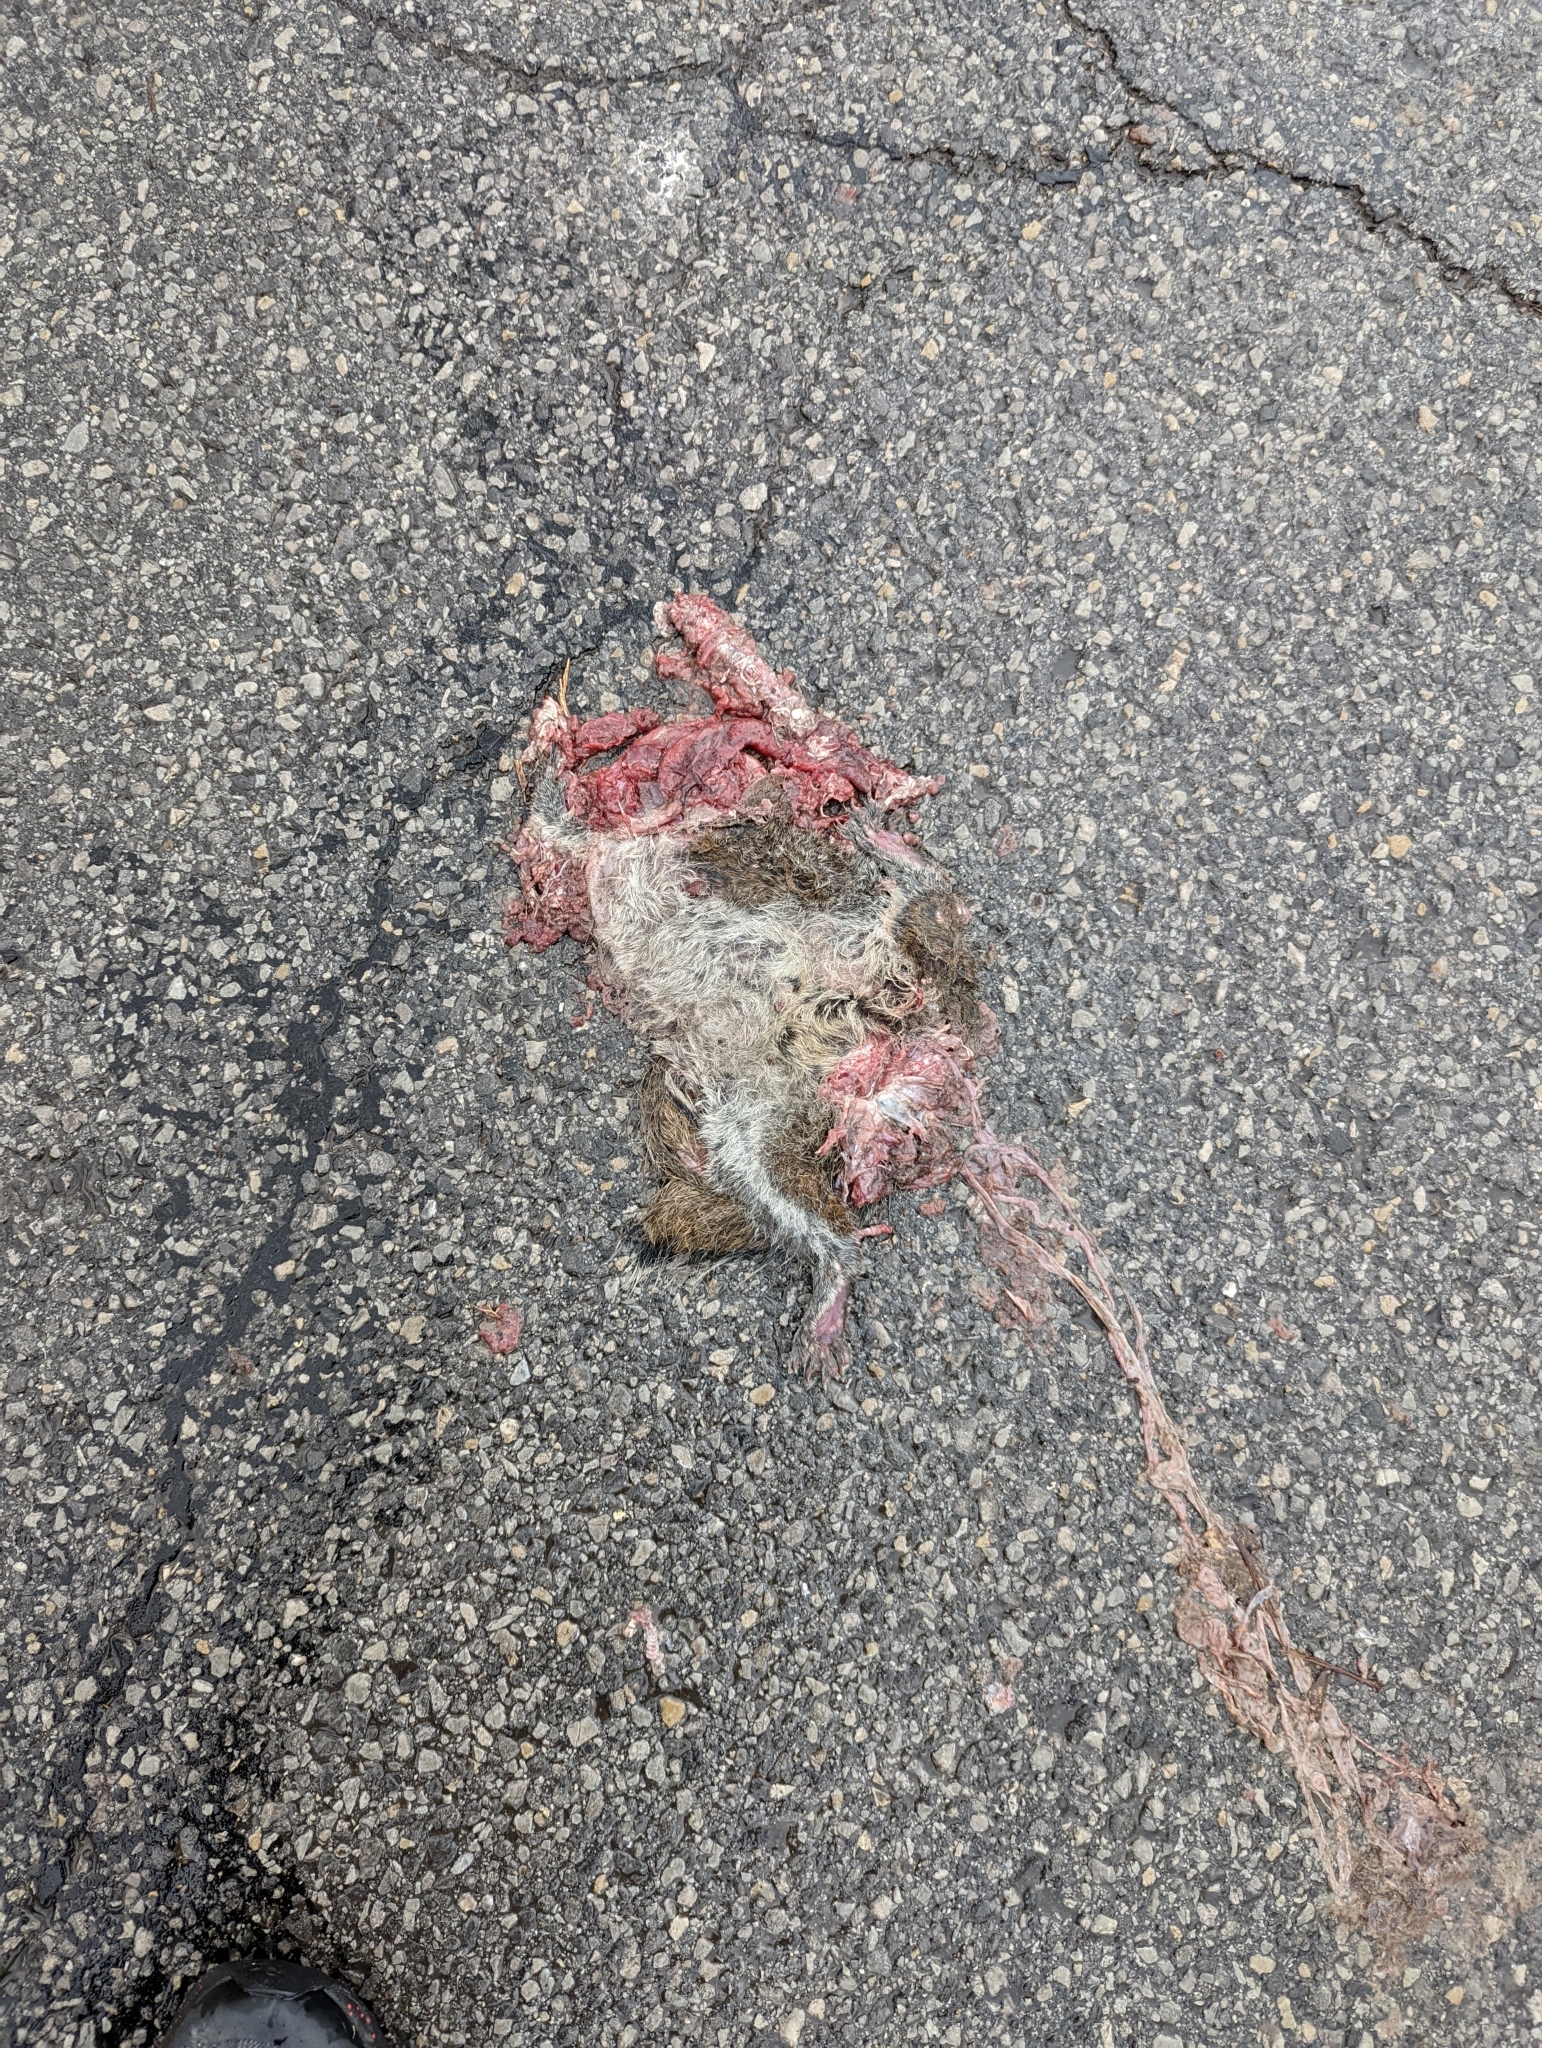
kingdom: Animalia
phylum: Chordata
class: Mammalia
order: Rodentia
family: Sciuridae
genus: Sciurus
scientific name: Sciurus carolinensis
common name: Eastern gray squirrel
